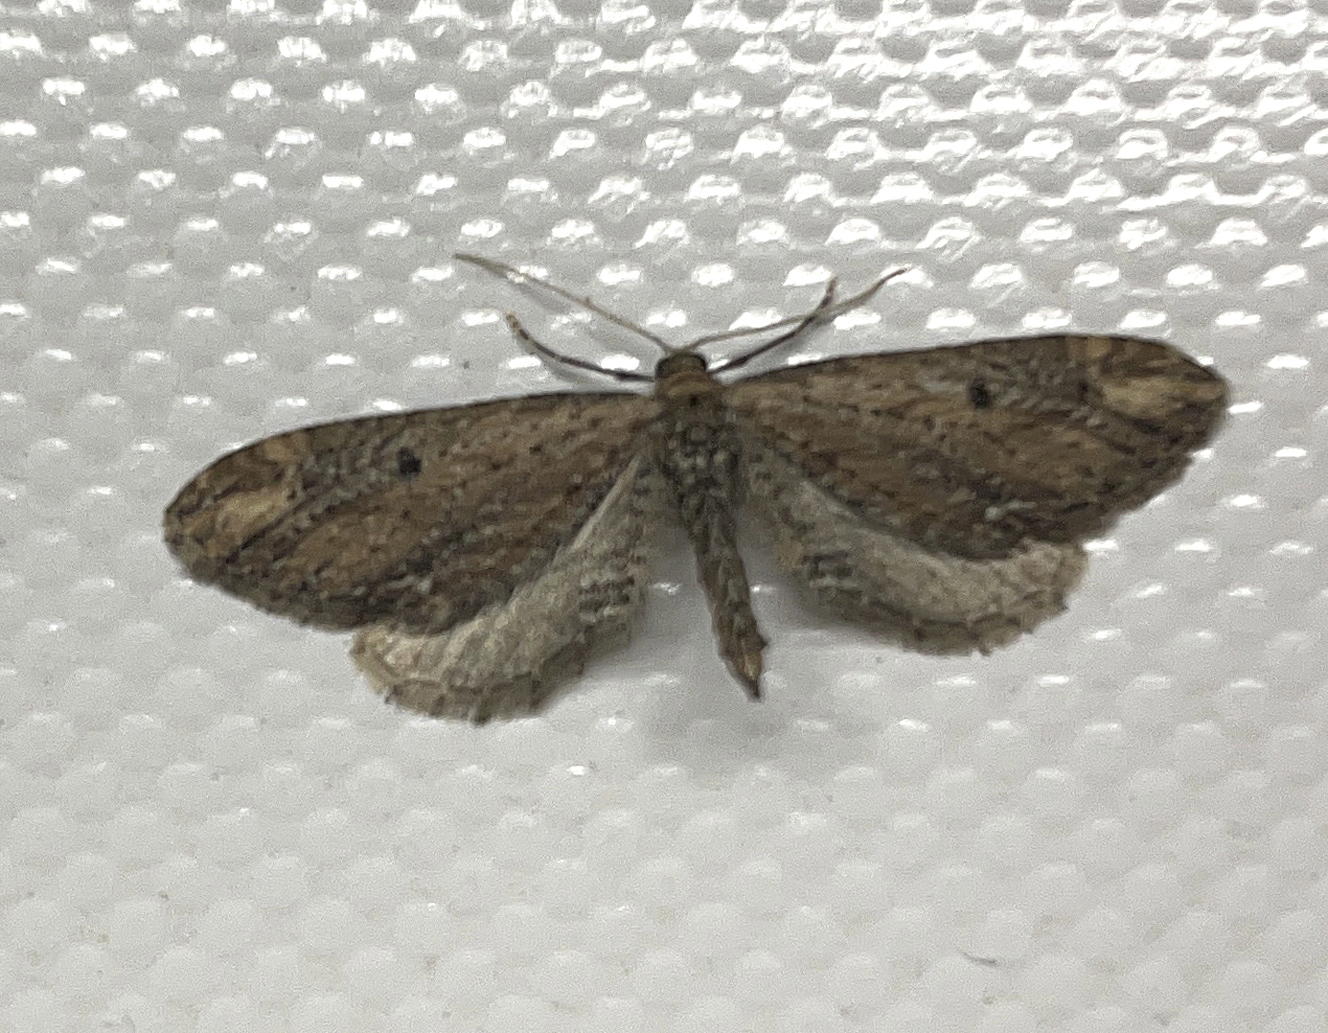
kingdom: Animalia
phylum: Arthropoda
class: Insecta
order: Lepidoptera
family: Geometridae
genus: Eupithecia
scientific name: Eupithecia subapicata
